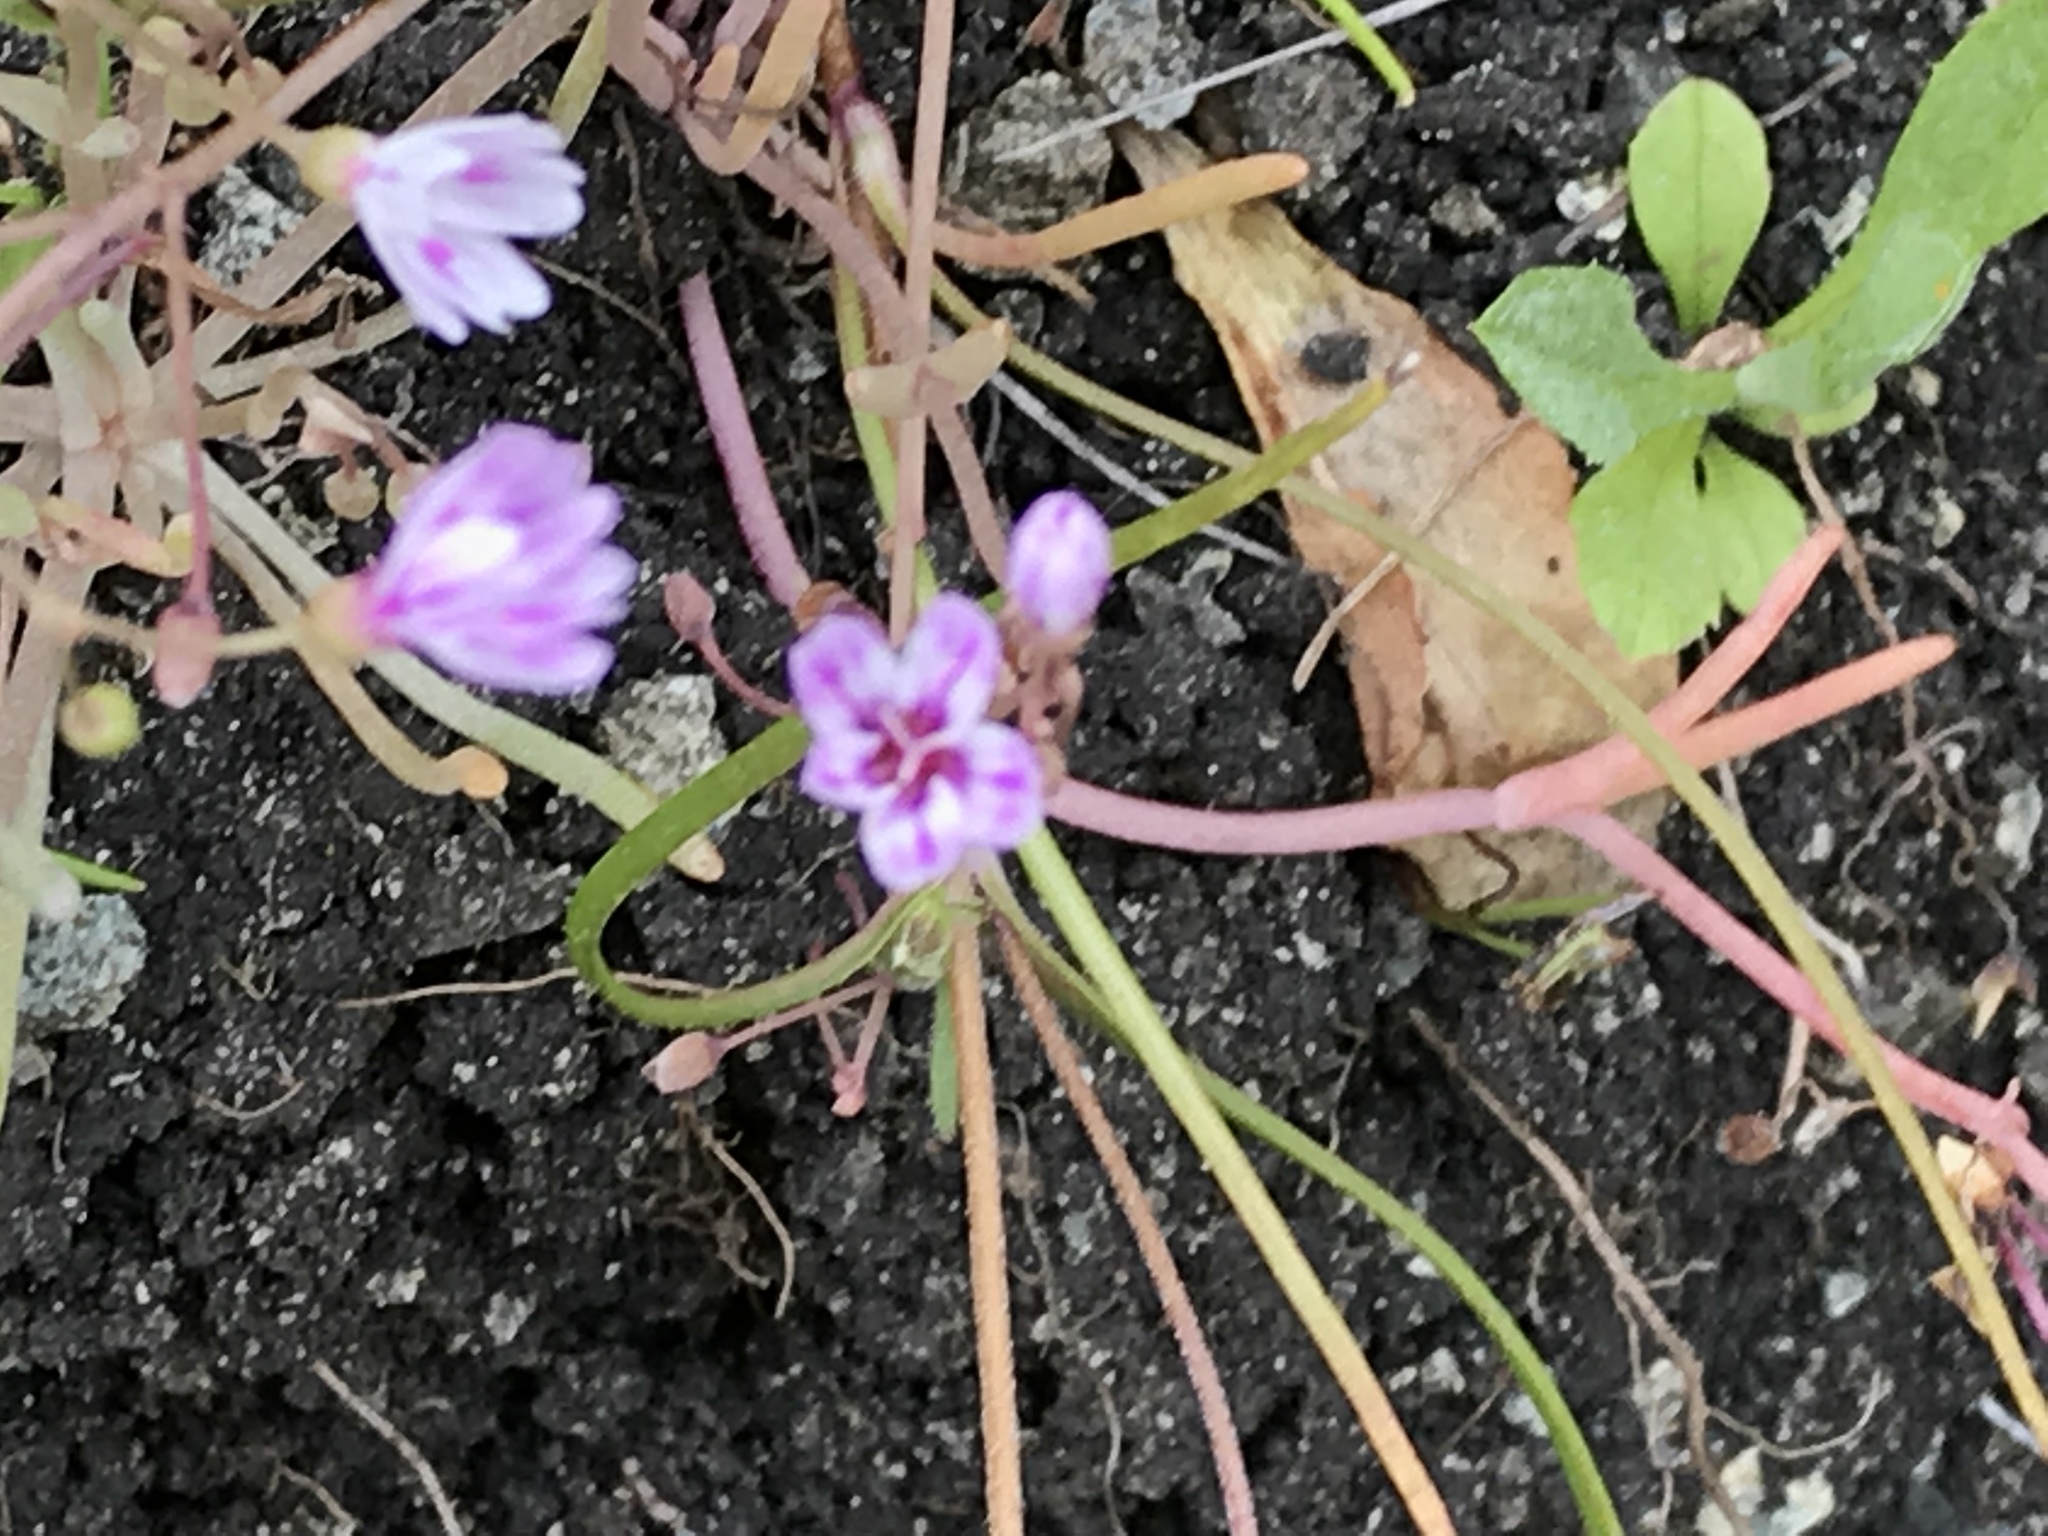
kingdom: Plantae
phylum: Tracheophyta
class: Magnoliopsida
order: Caryophyllales
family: Montiaceae
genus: Claytonia
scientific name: Claytonia gypsophiloides
